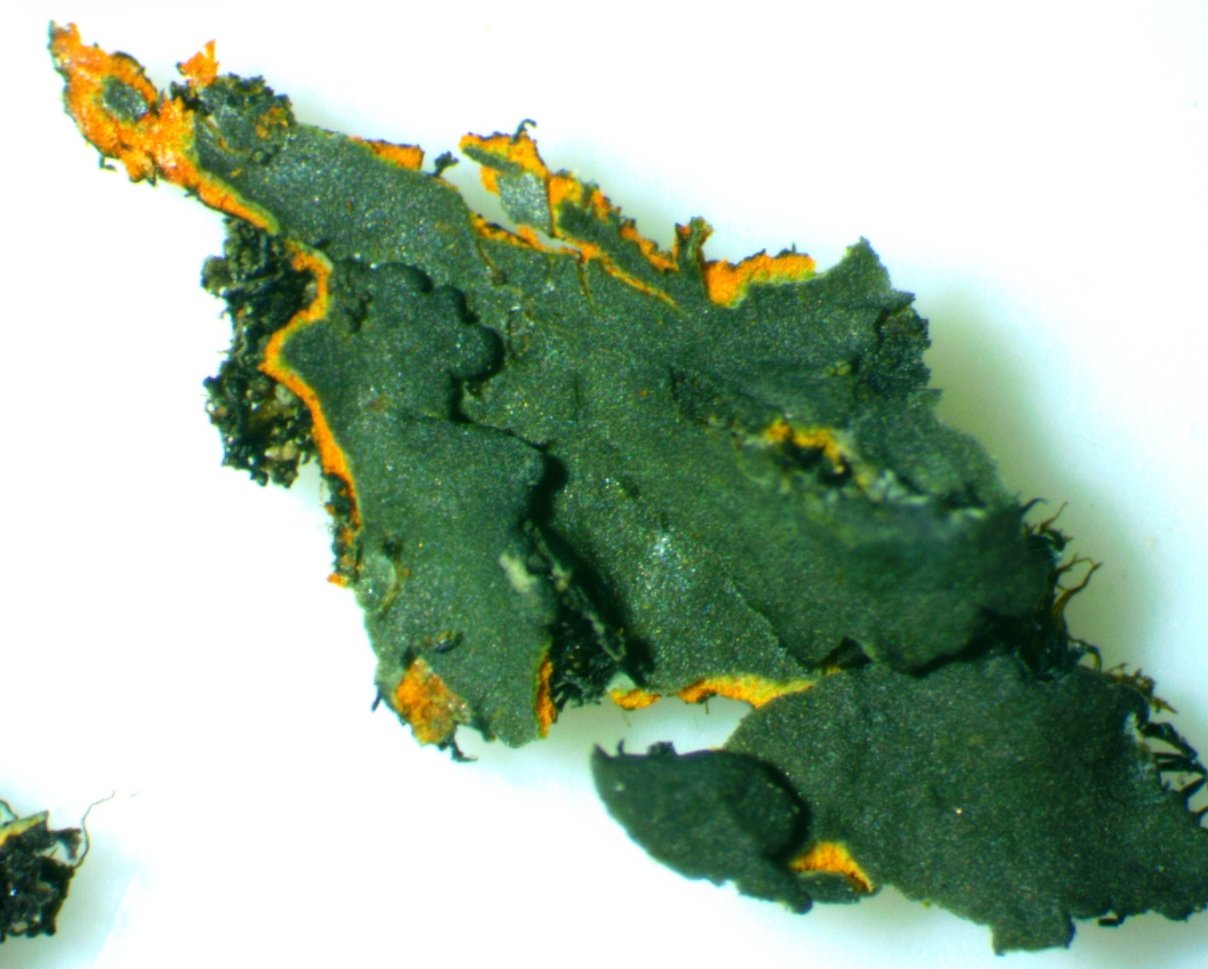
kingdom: Fungi
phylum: Ascomycota
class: Lecanoromycetes
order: Caliciales
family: Physciaceae
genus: Phaeophyscia
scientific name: Phaeophyscia rubropulchra
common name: Orange-cored shadow lichen
